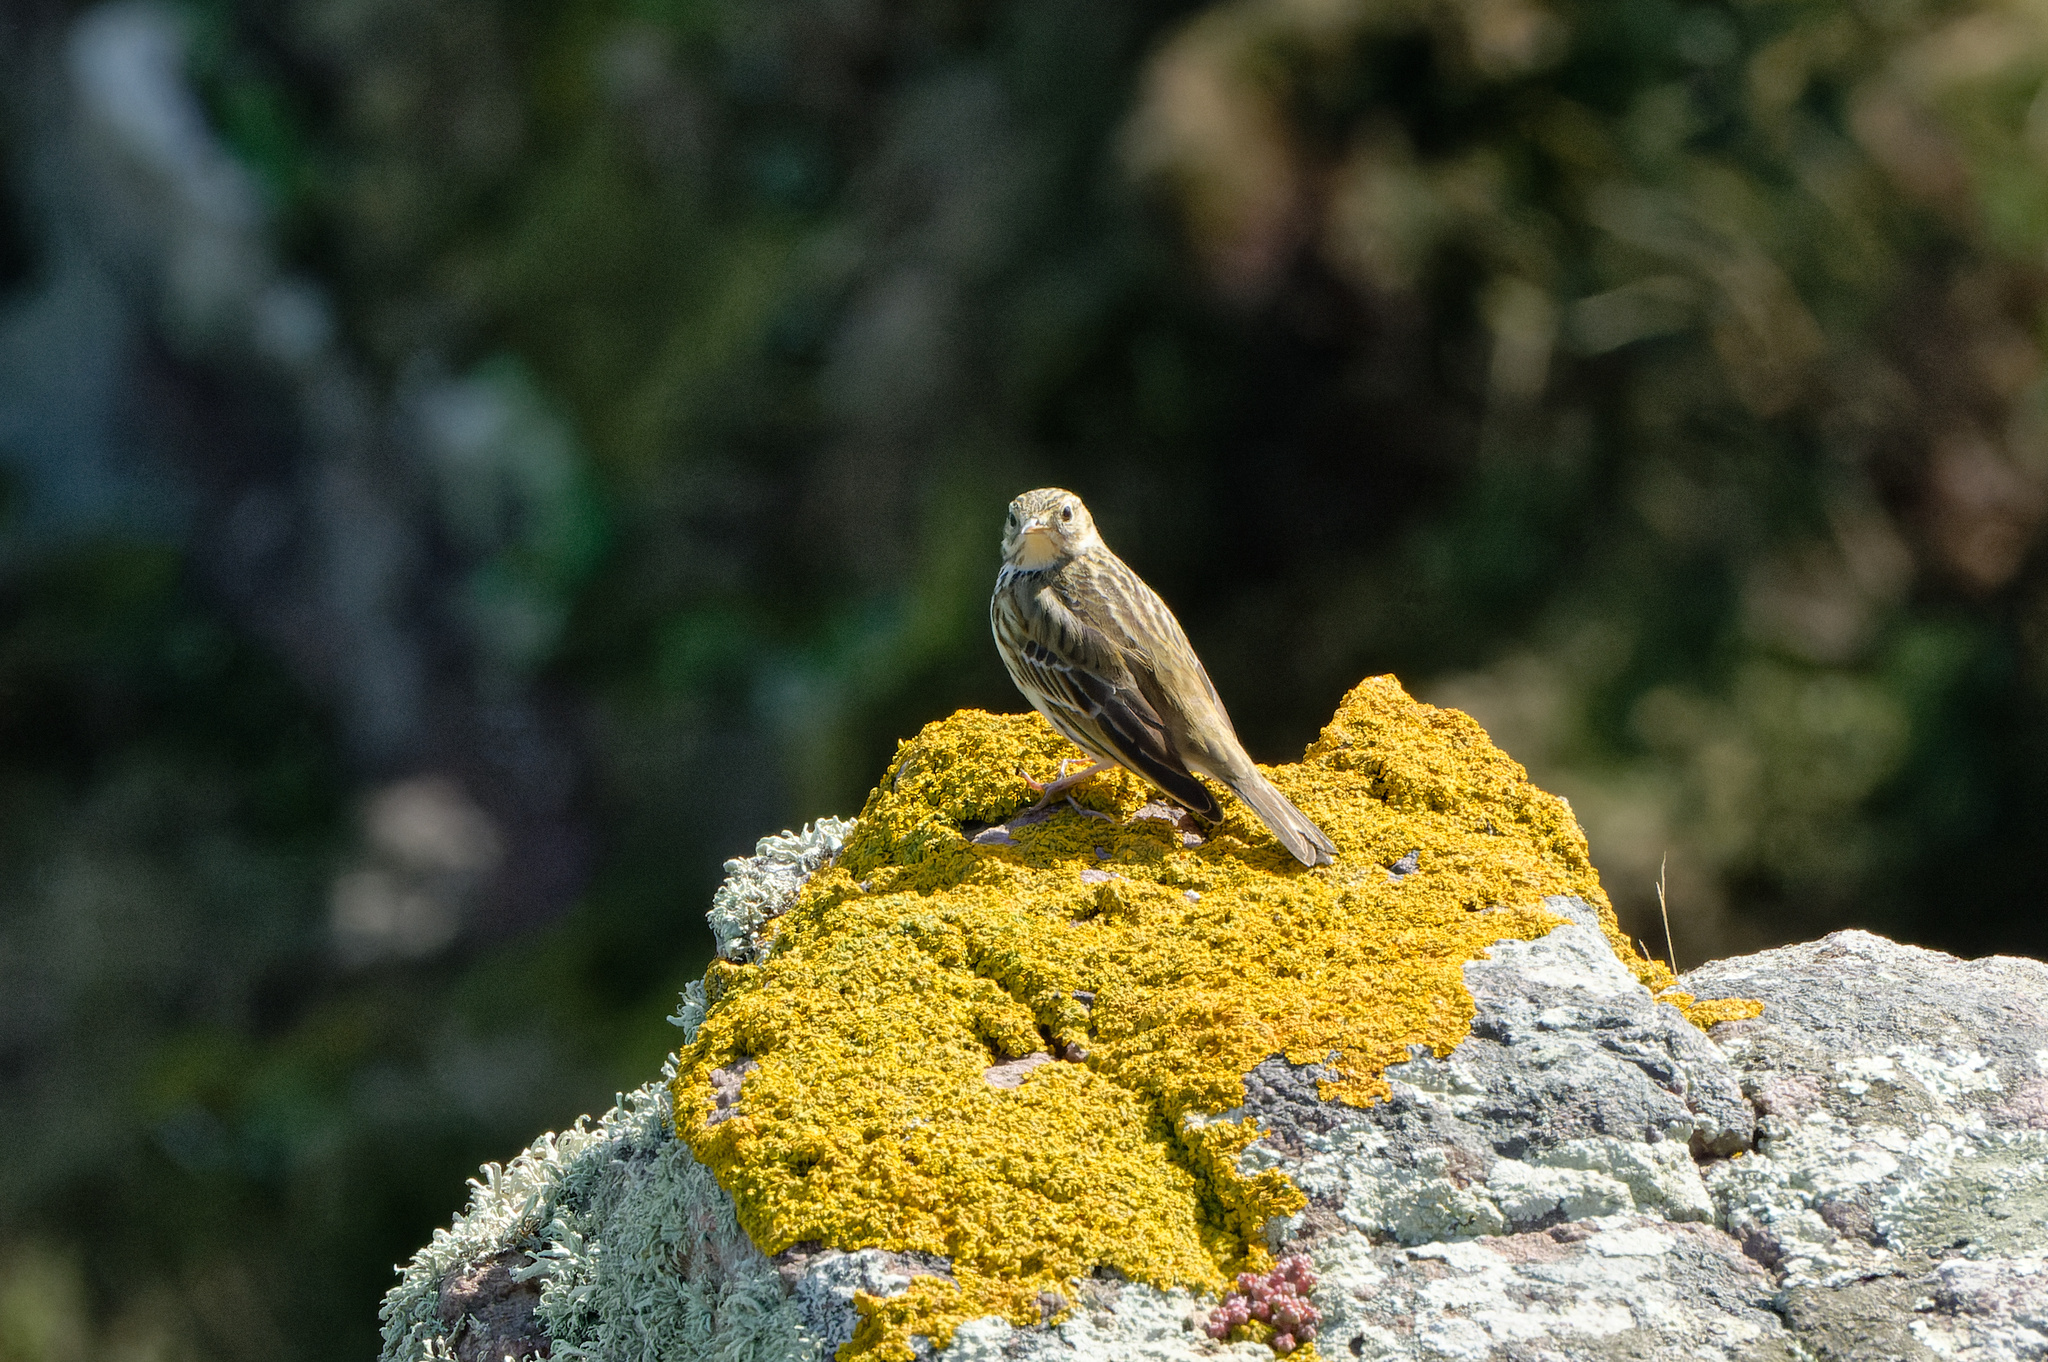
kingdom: Animalia
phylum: Chordata
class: Aves
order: Passeriformes
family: Motacillidae
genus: Anthus
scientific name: Anthus pratensis
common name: Meadow pipit
